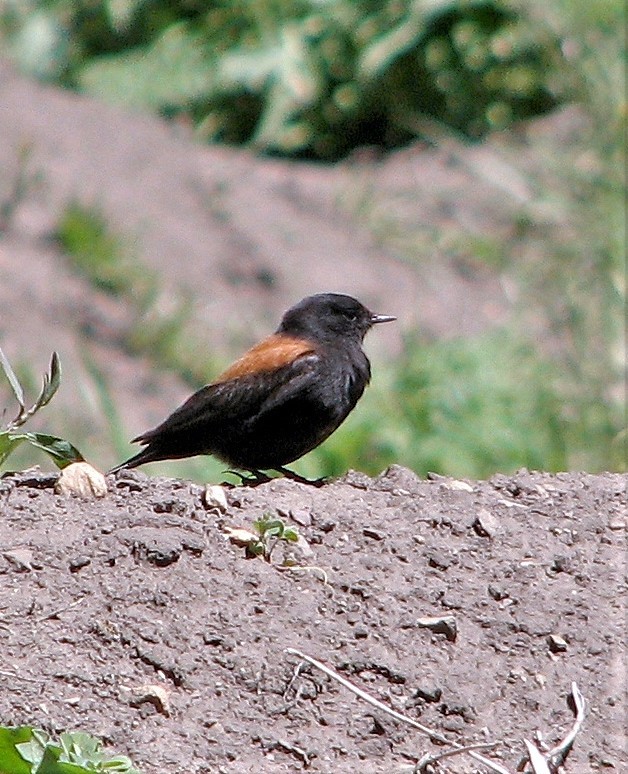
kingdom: Animalia
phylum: Chordata
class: Aves
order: Passeriformes
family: Tyrannidae
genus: Lessonia
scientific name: Lessonia rufa
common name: Austral negrito
